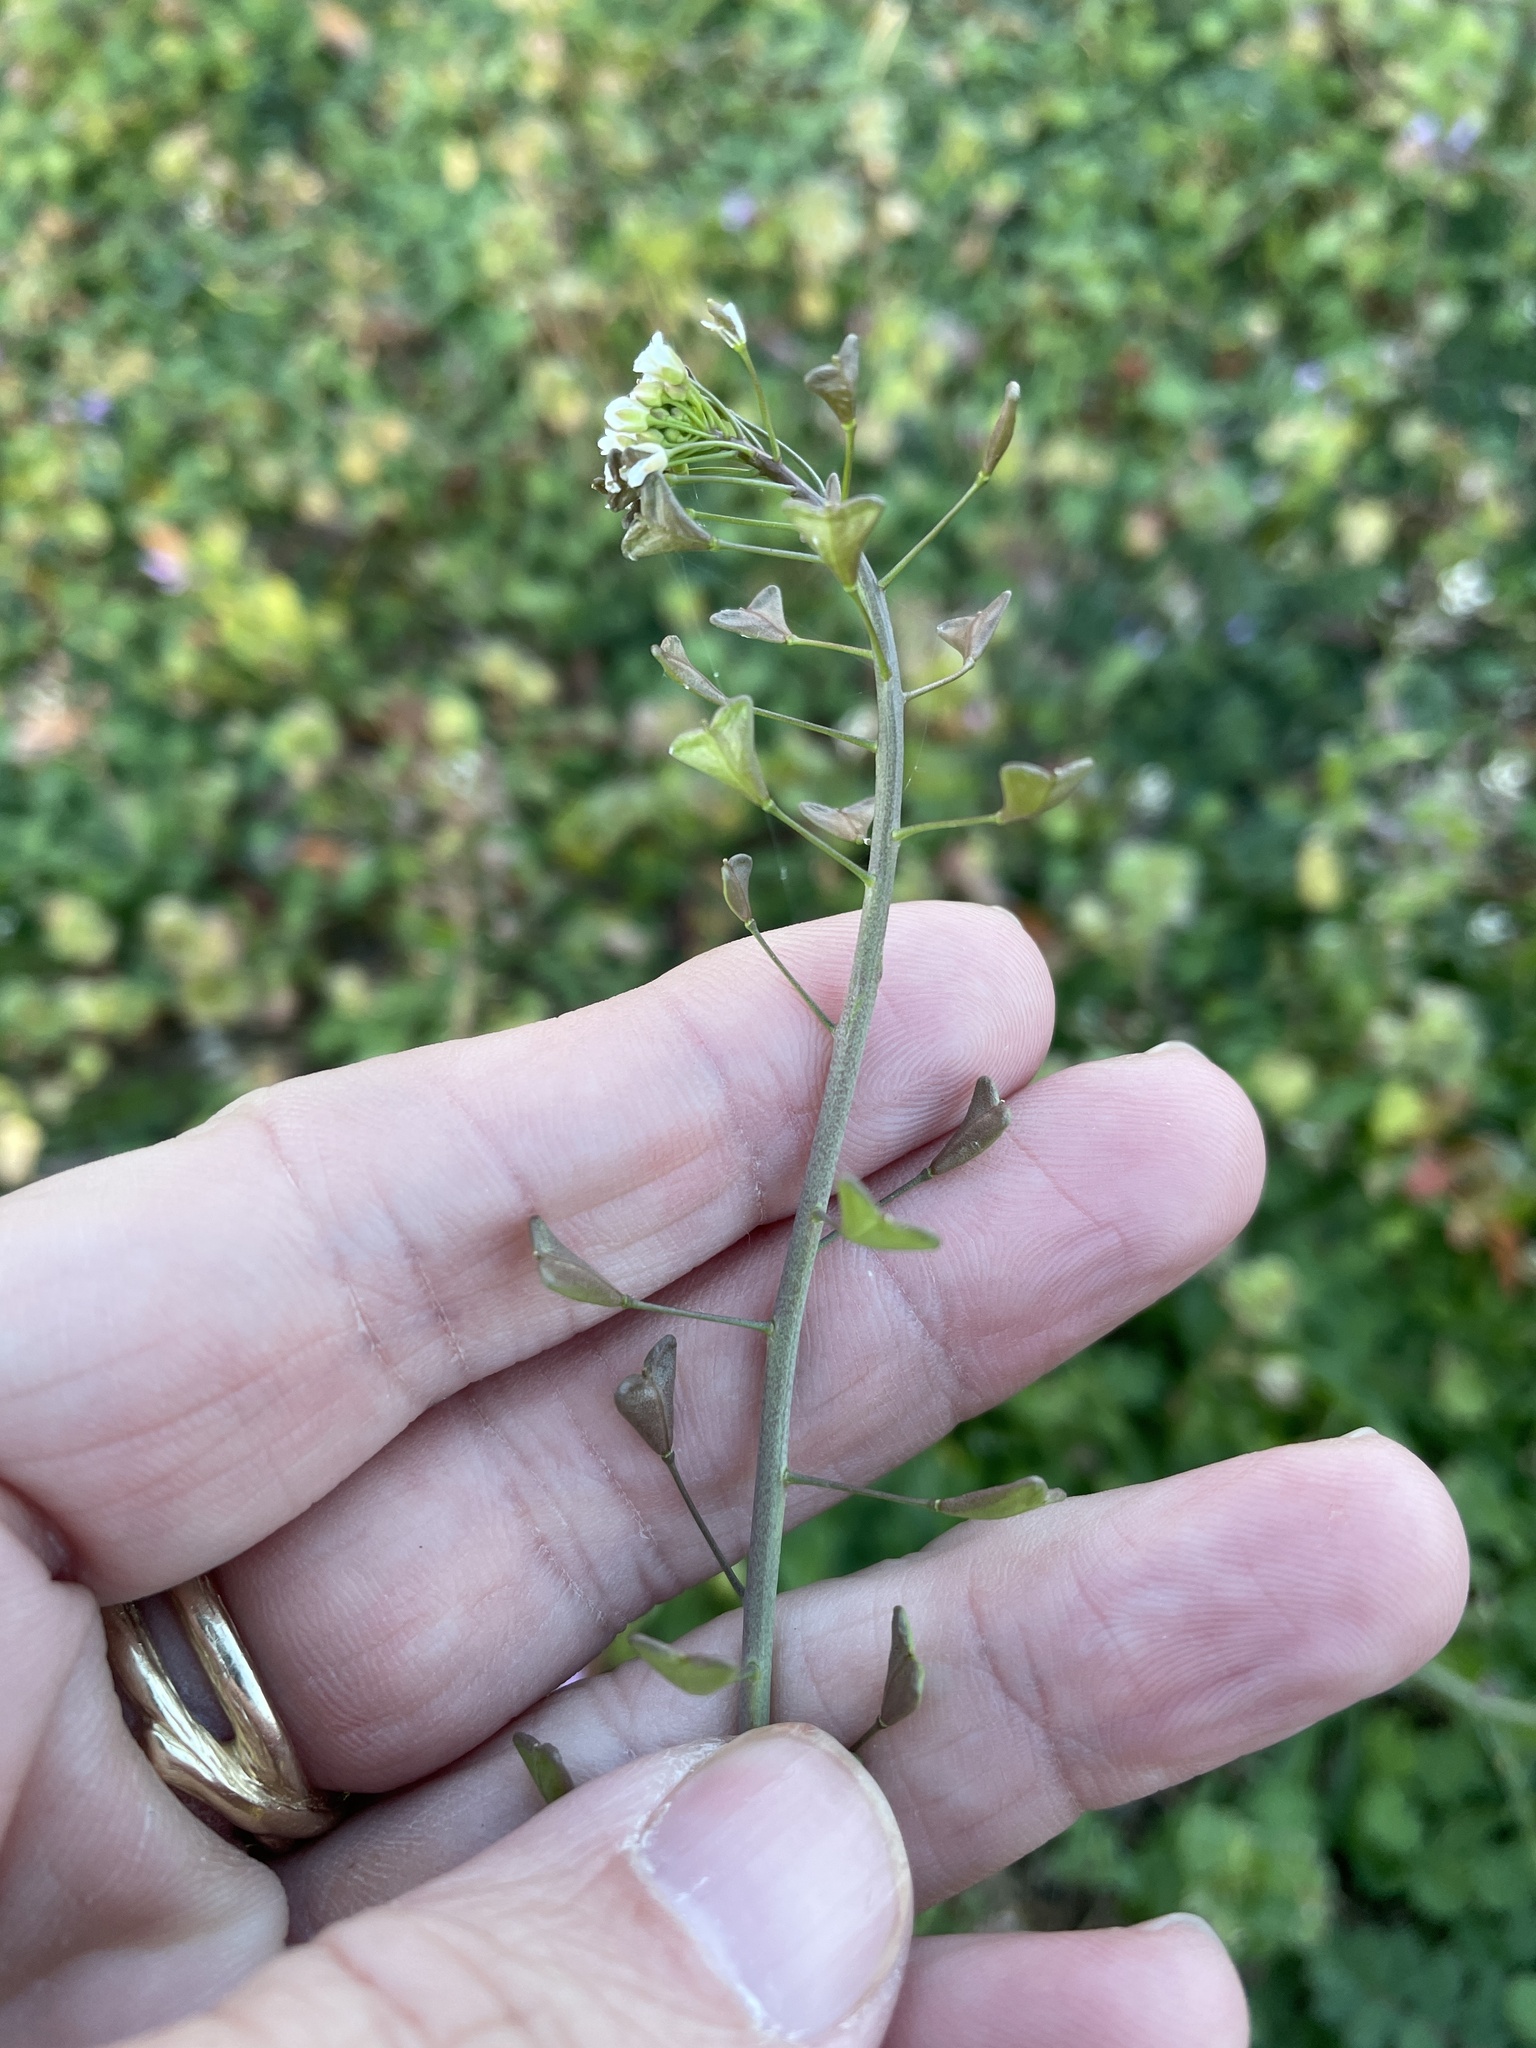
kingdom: Plantae
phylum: Tracheophyta
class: Magnoliopsida
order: Brassicales
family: Brassicaceae
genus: Capsella
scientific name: Capsella bursa-pastoris
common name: Shepherd's purse
